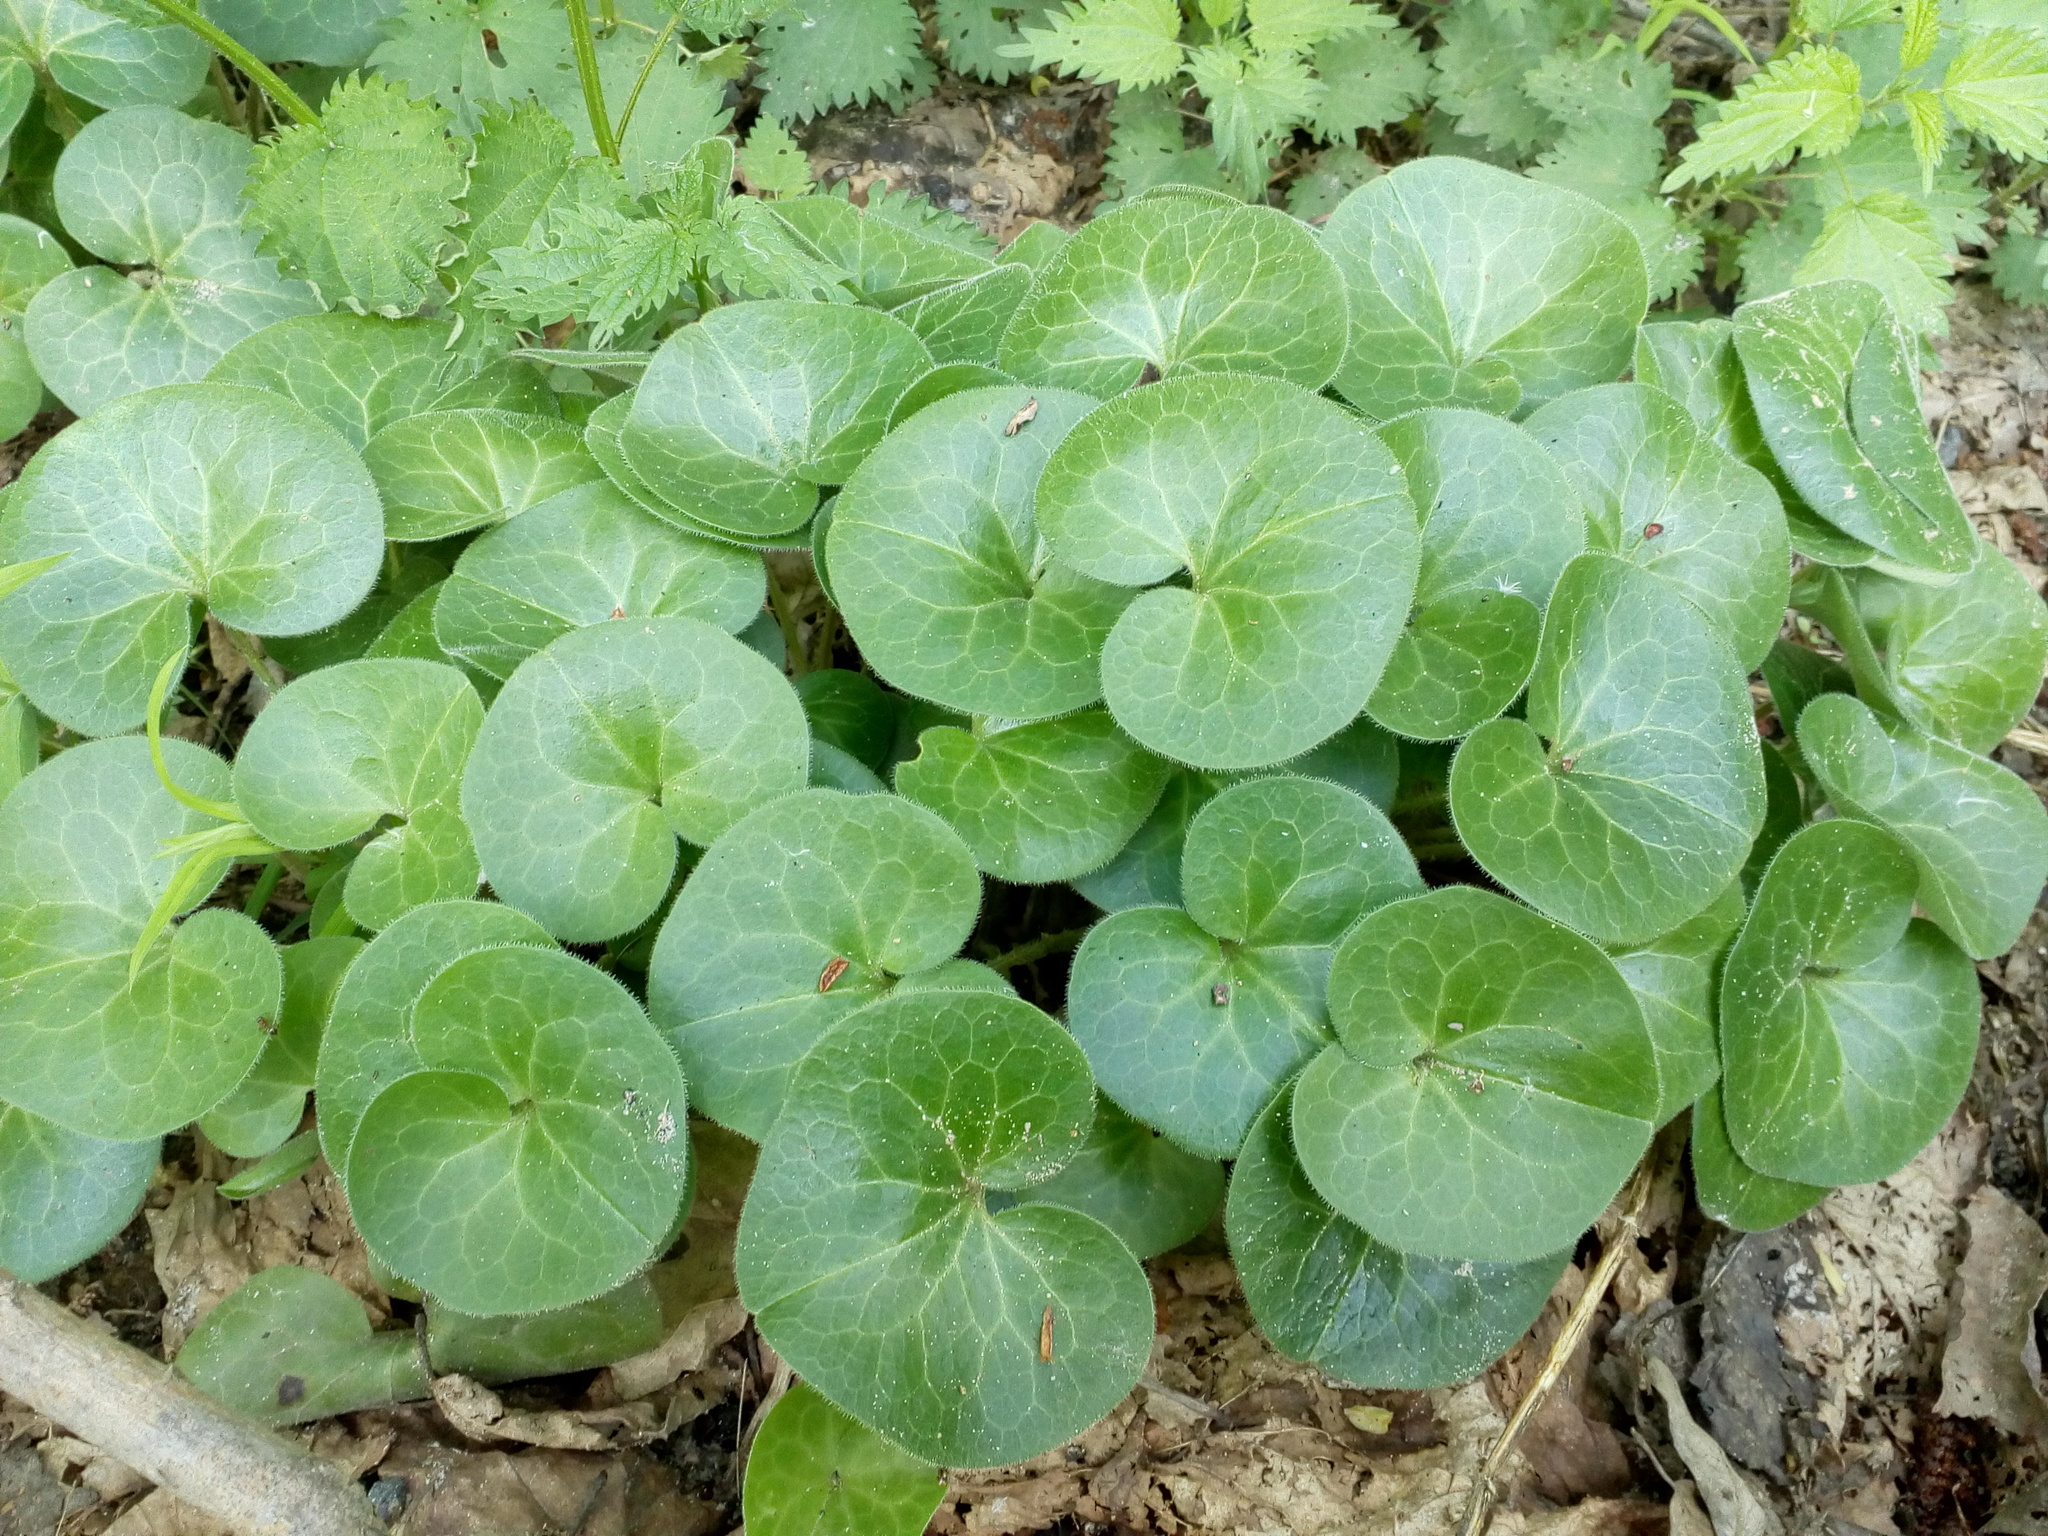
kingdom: Plantae
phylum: Tracheophyta
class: Magnoliopsida
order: Piperales
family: Aristolochiaceae
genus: Asarum
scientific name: Asarum europaeum
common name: Asarabacca
